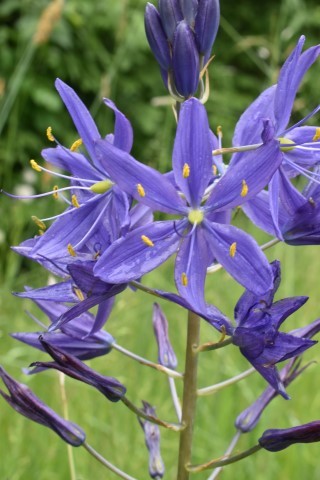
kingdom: Plantae
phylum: Tracheophyta
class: Liliopsida
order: Asparagales
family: Asparagaceae
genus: Camassia
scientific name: Camassia leichtlinii
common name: Leichtlin's camas
